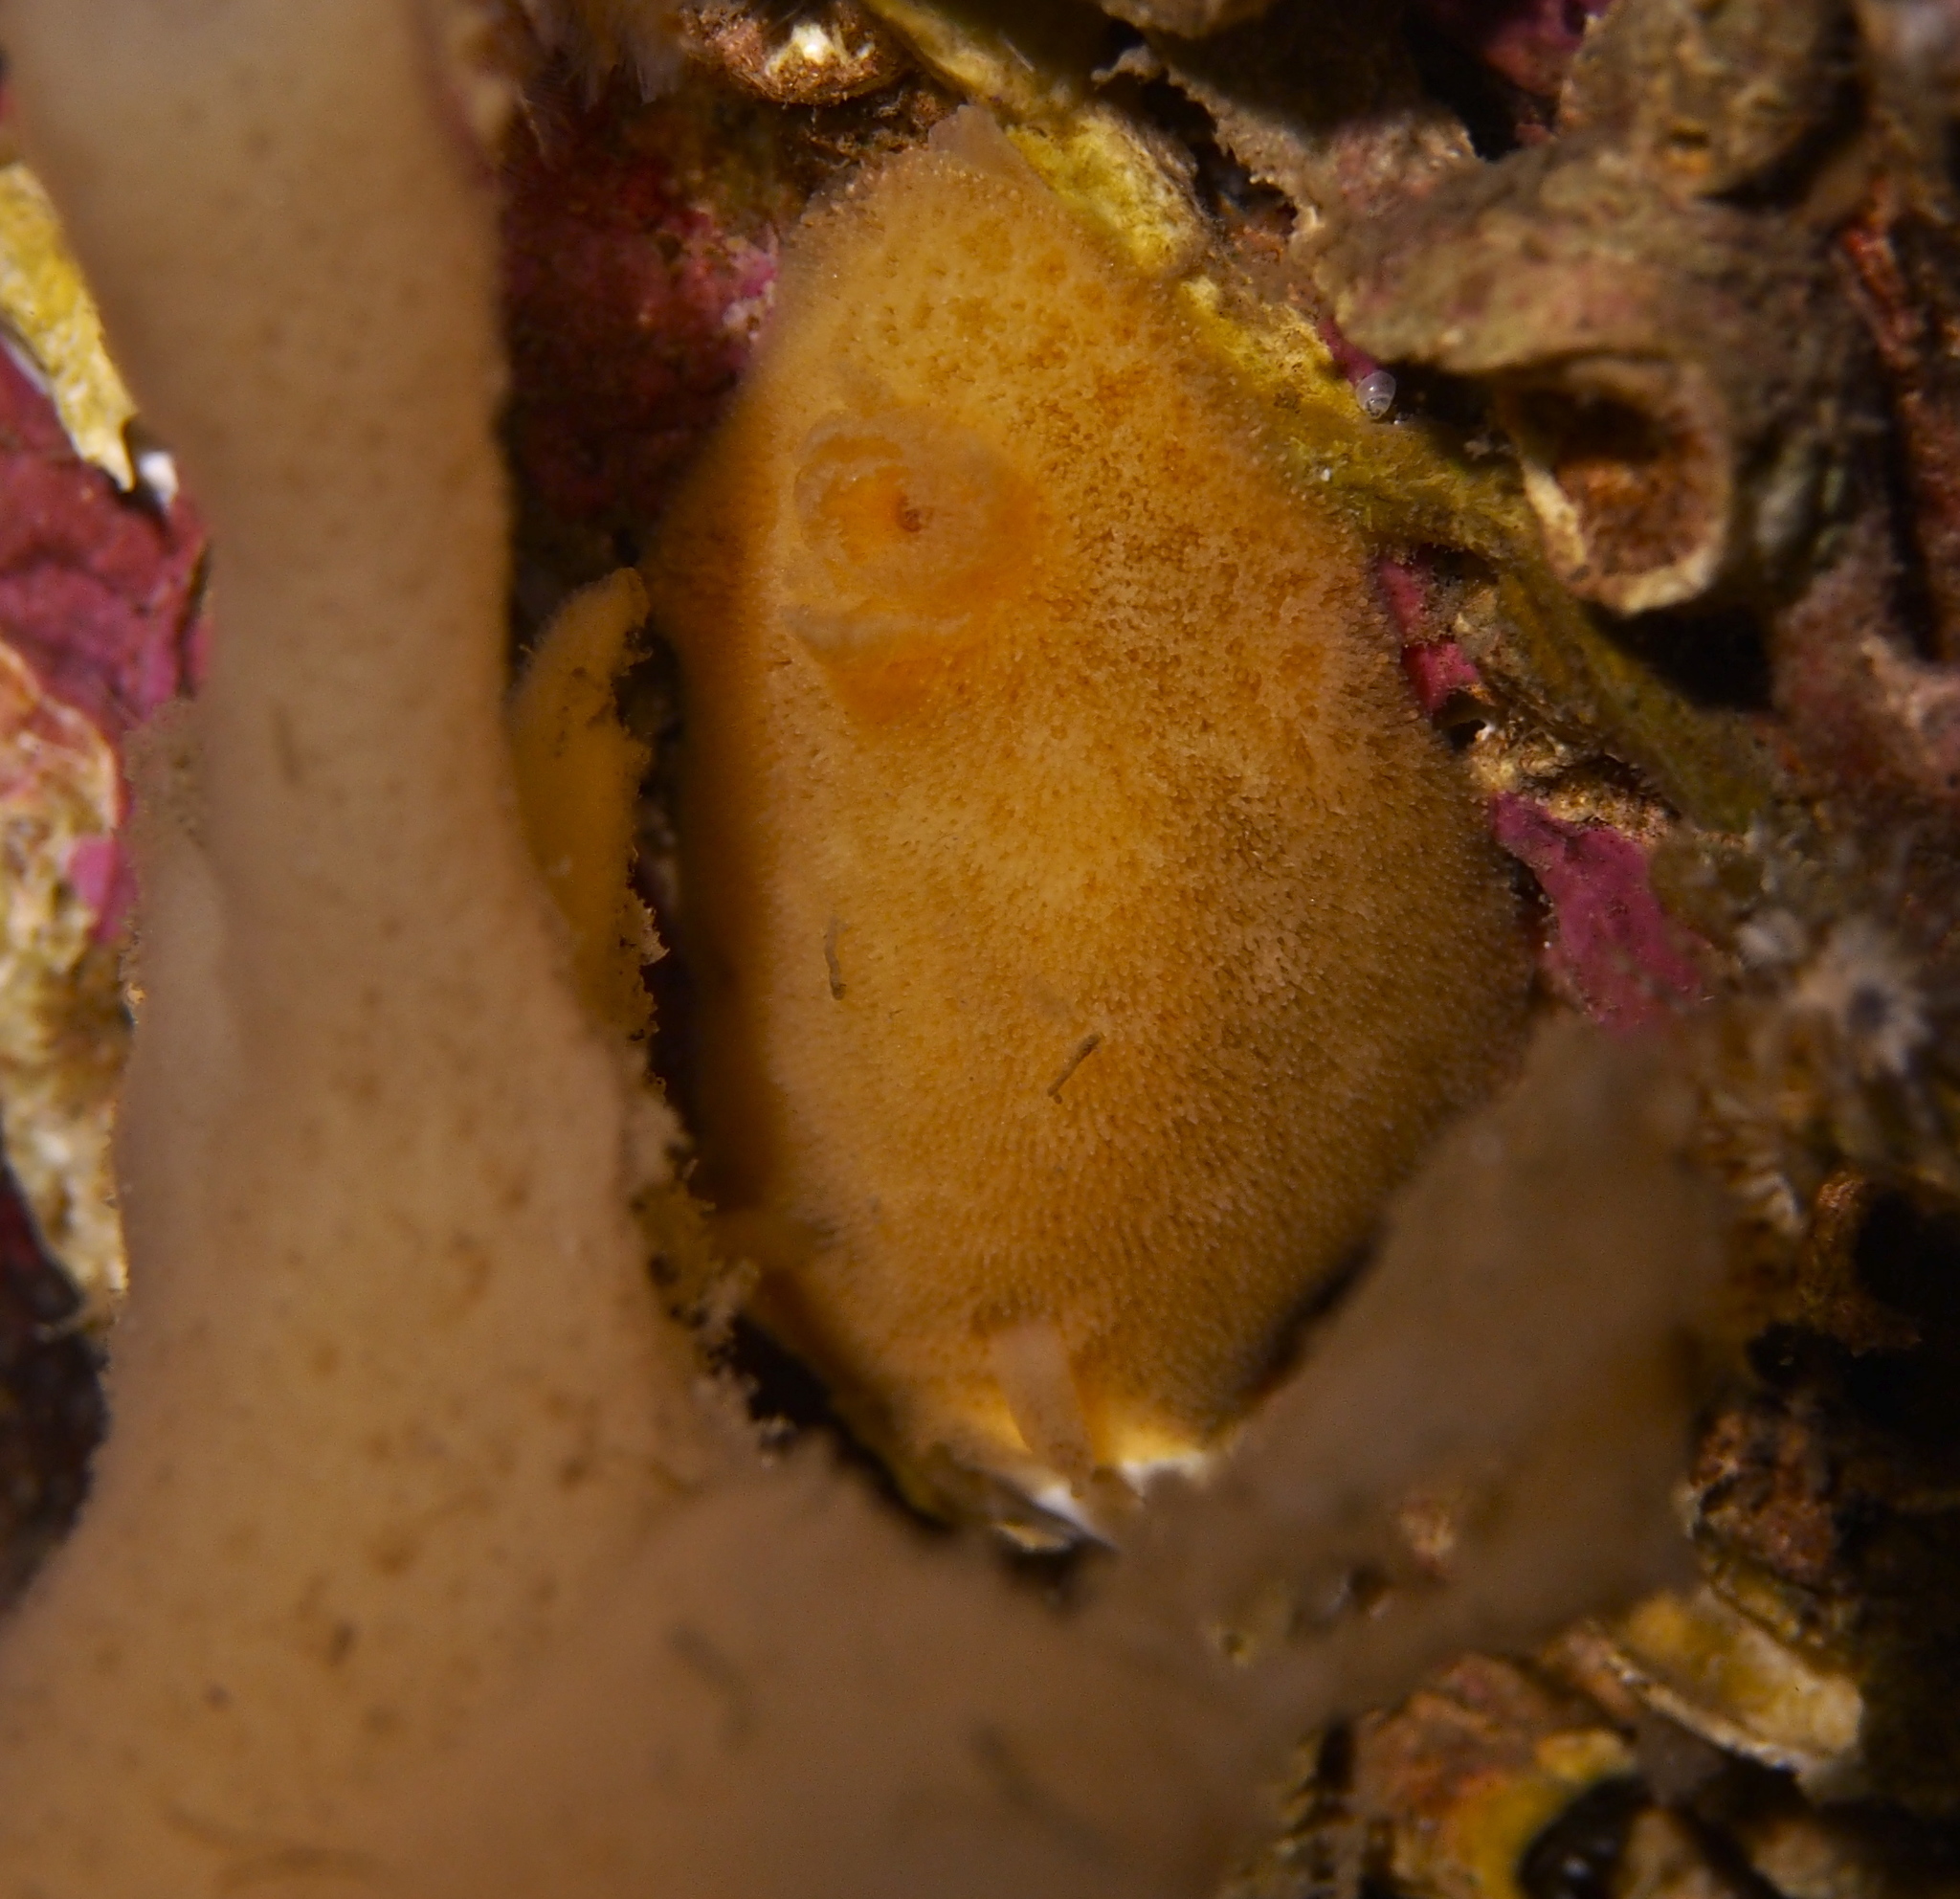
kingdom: Animalia
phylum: Mollusca
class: Gastropoda
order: Nudibranchia
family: Discodorididae
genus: Jorunna
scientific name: Jorunna tomentosa
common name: Grey sea slug
